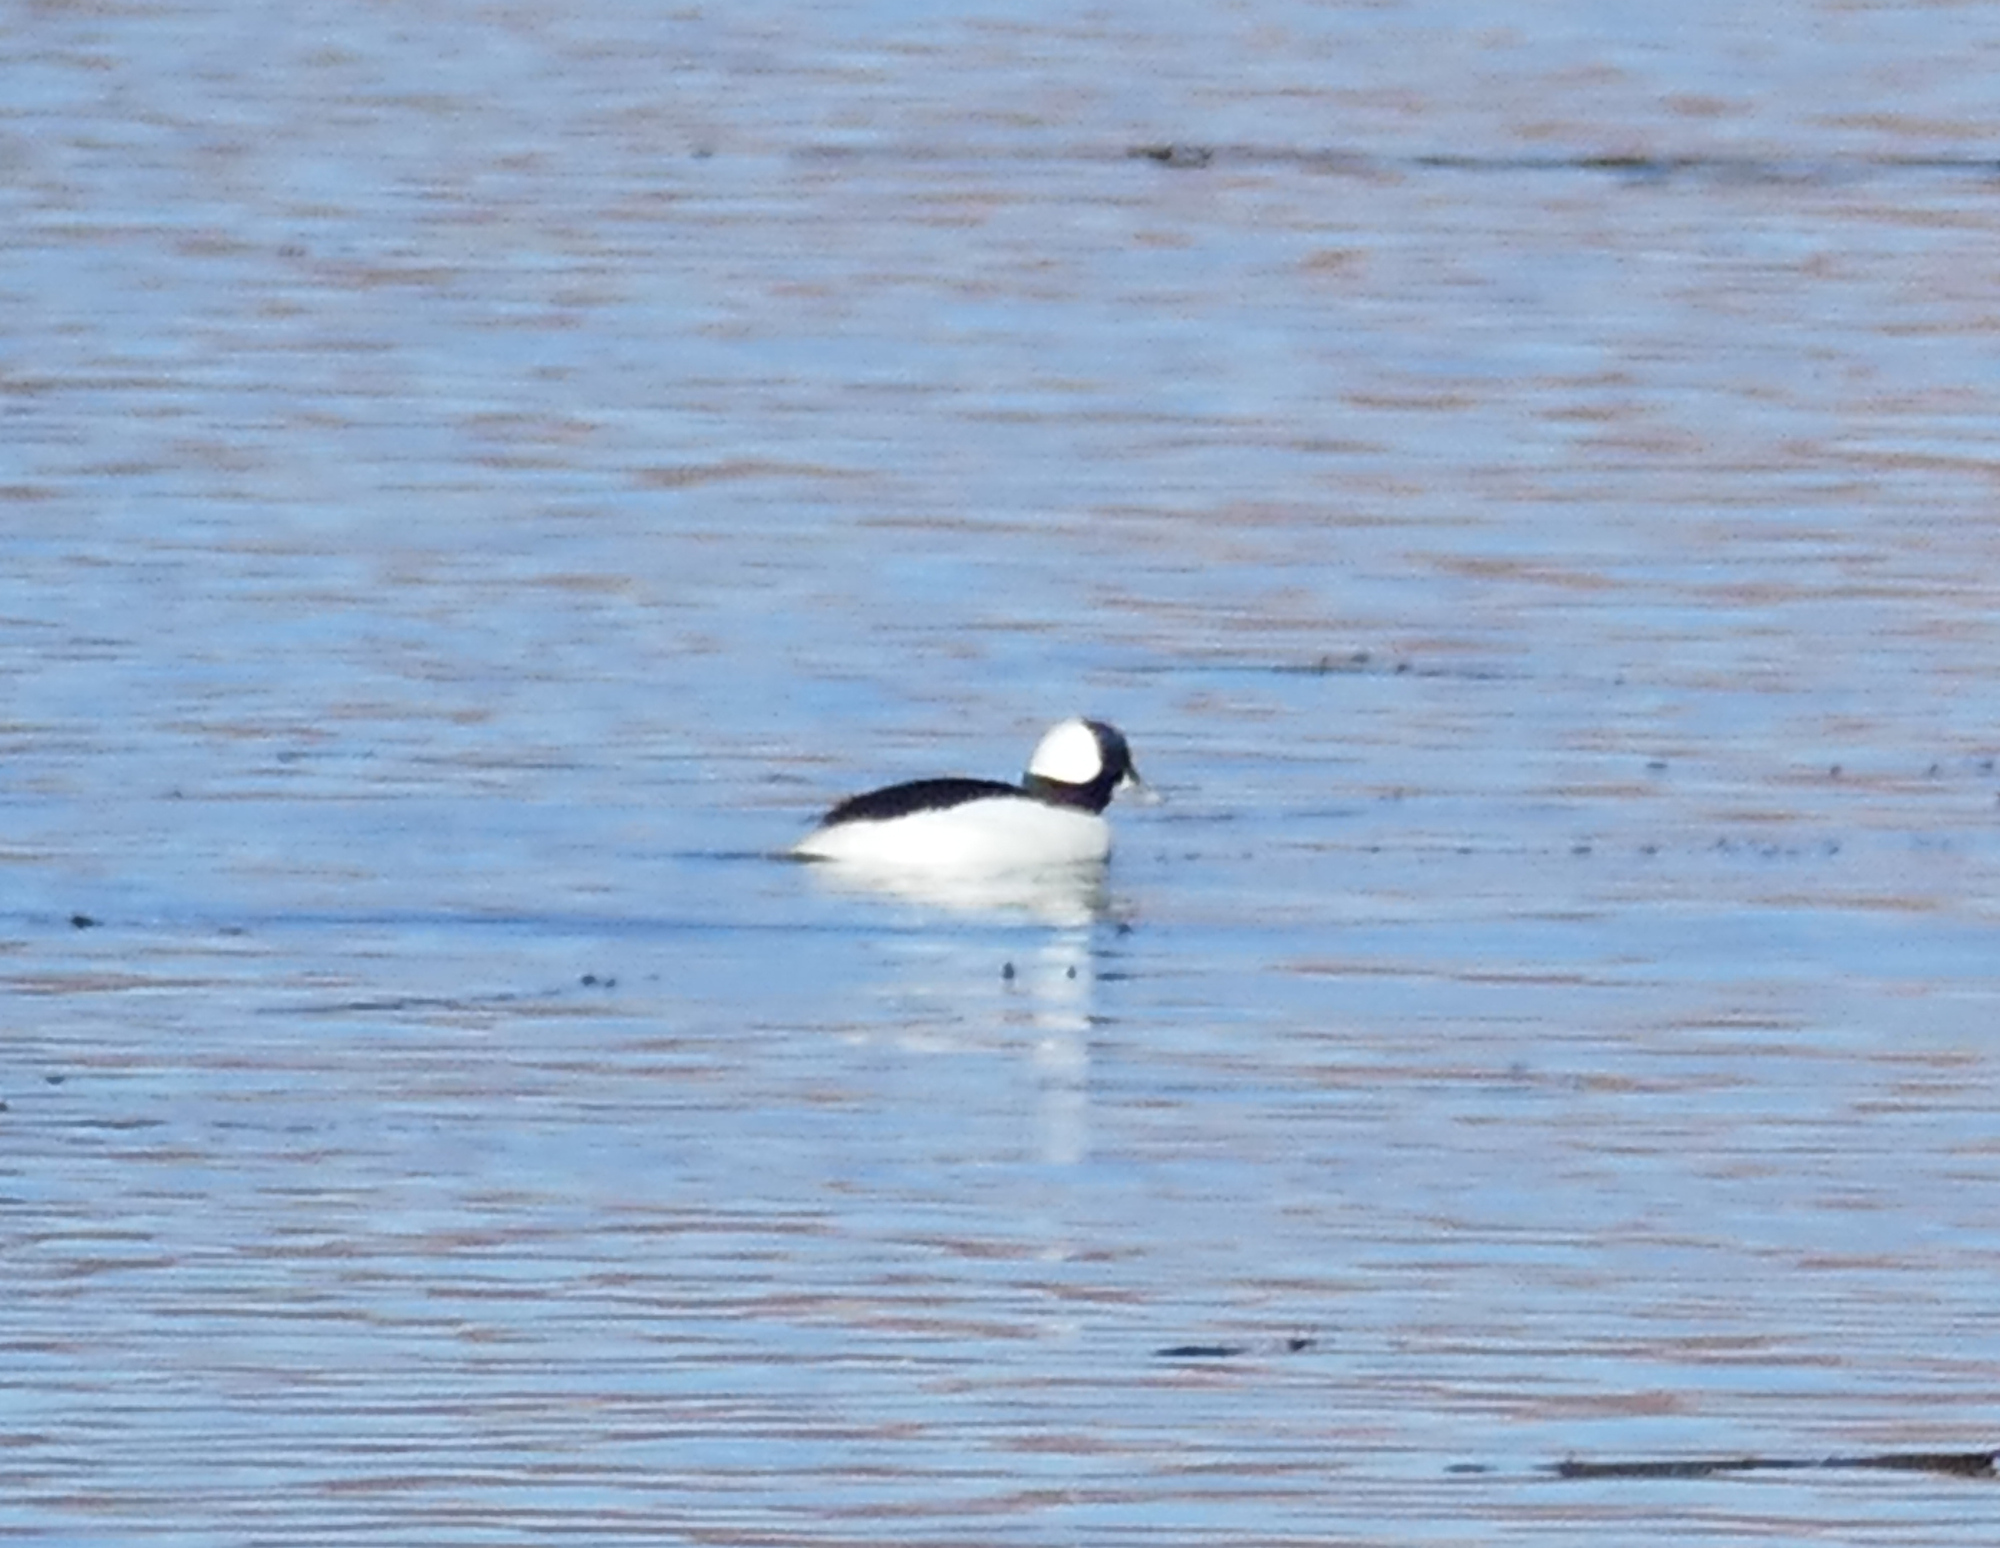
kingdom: Animalia
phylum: Chordata
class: Aves
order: Anseriformes
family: Anatidae
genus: Bucephala
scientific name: Bucephala albeola
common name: Bufflehead
